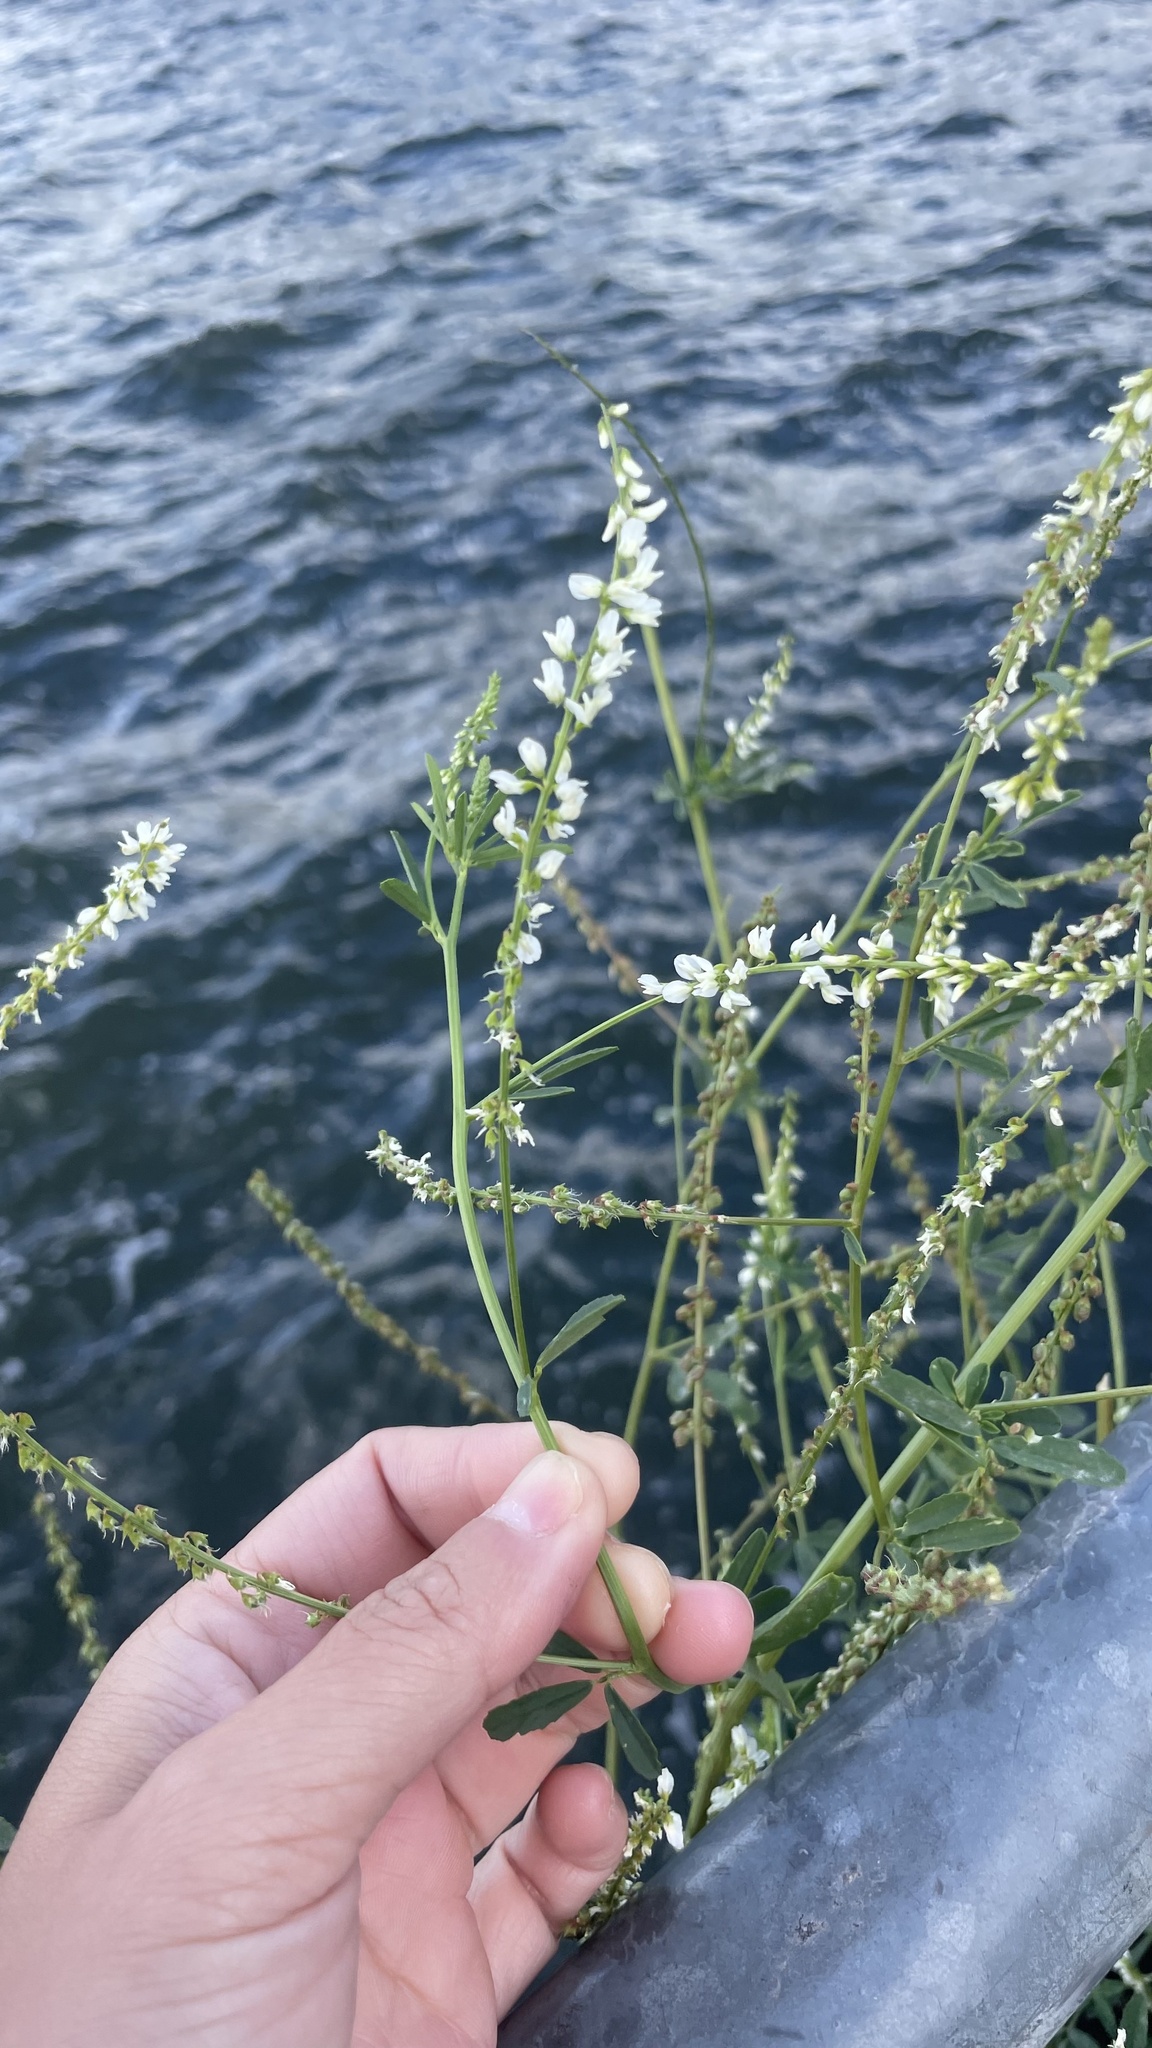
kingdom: Plantae
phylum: Tracheophyta
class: Magnoliopsida
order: Fabales
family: Fabaceae
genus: Melilotus
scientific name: Melilotus albus
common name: White melilot
